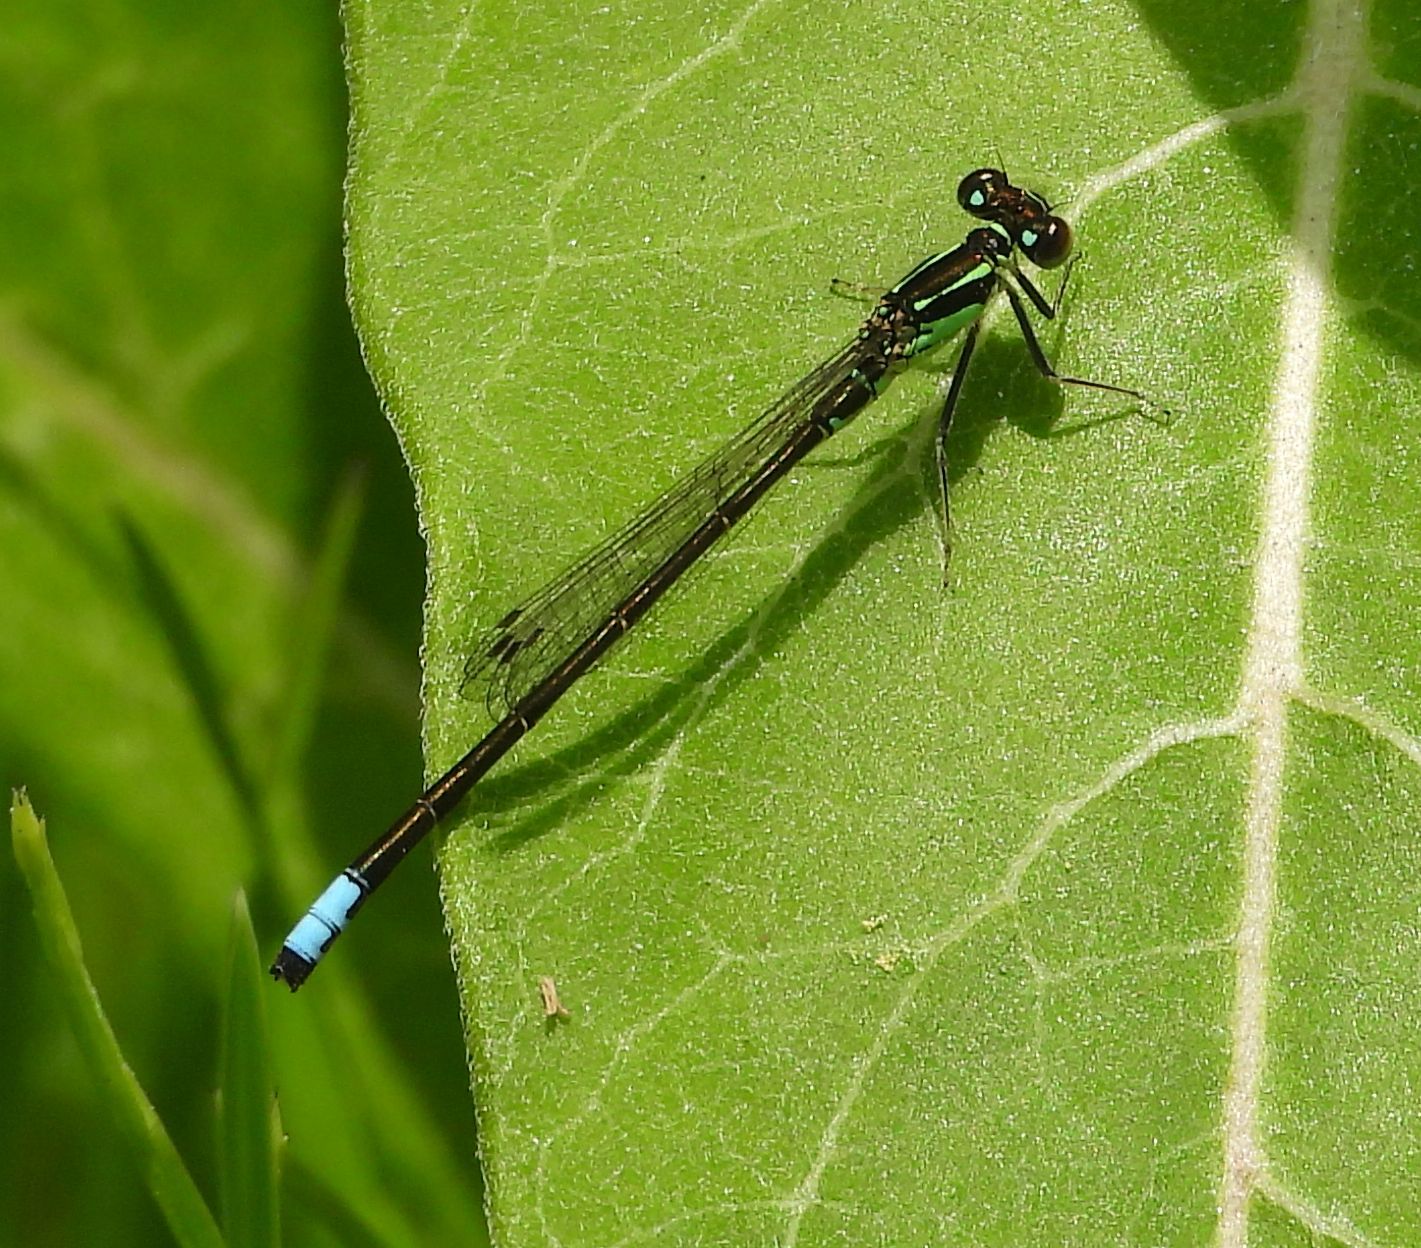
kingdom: Animalia
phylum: Arthropoda
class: Insecta
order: Odonata
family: Coenagrionidae
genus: Ischnura
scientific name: Ischnura verticalis
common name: Eastern forktail
